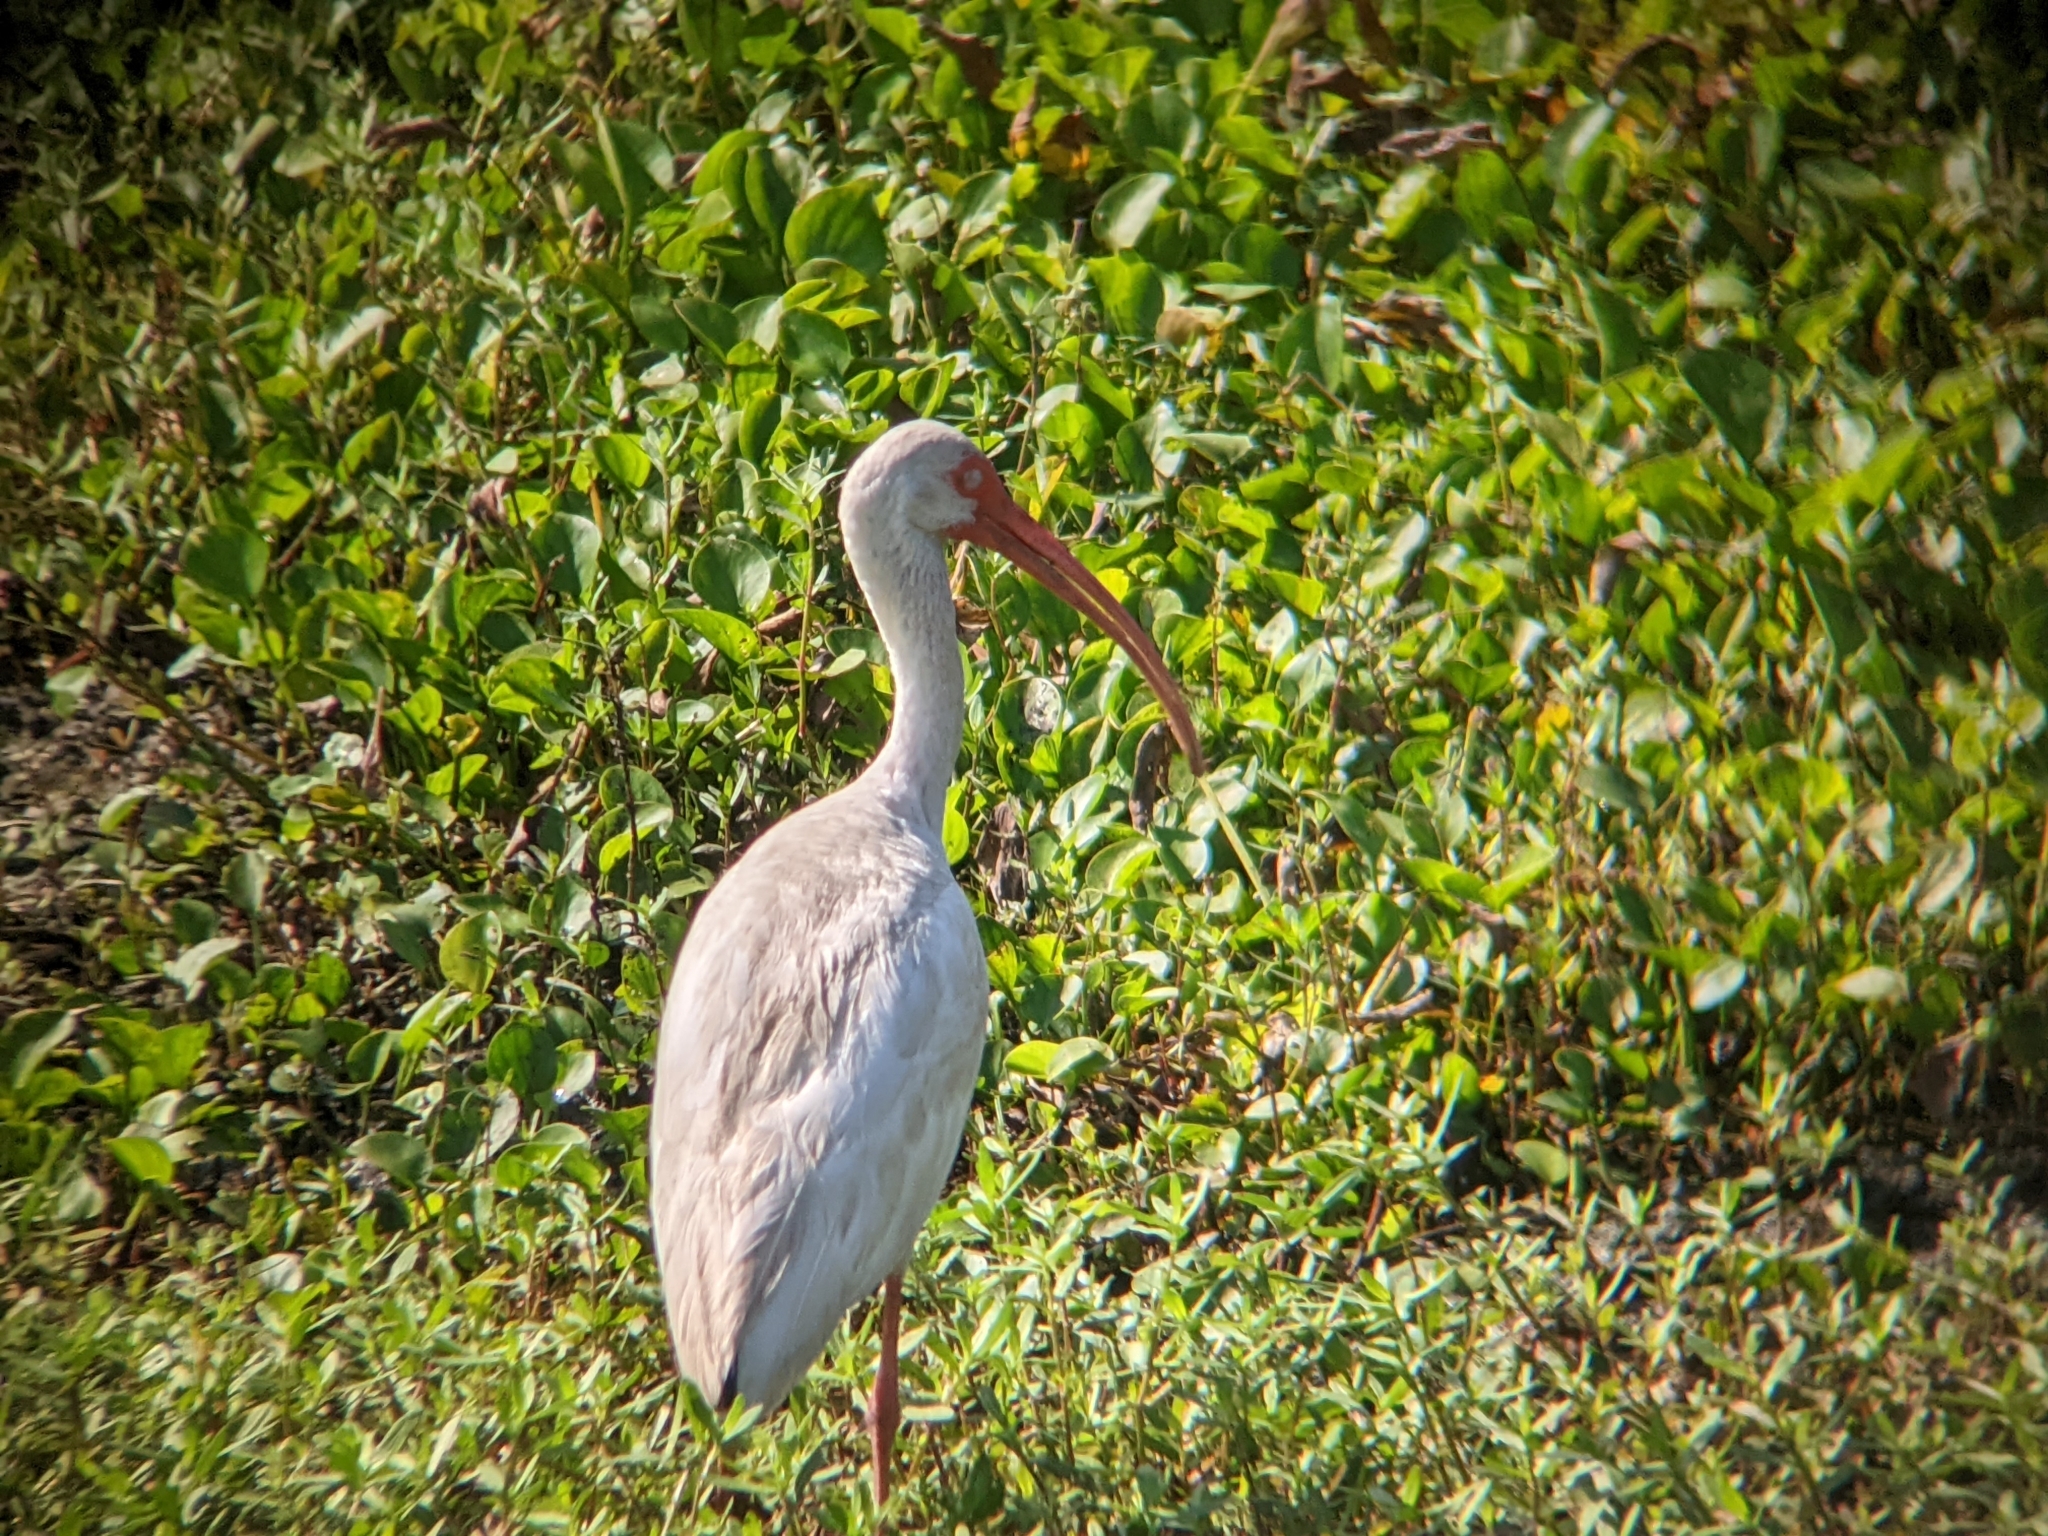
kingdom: Animalia
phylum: Chordata
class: Aves
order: Pelecaniformes
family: Threskiornithidae
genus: Eudocimus
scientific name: Eudocimus albus
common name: White ibis
